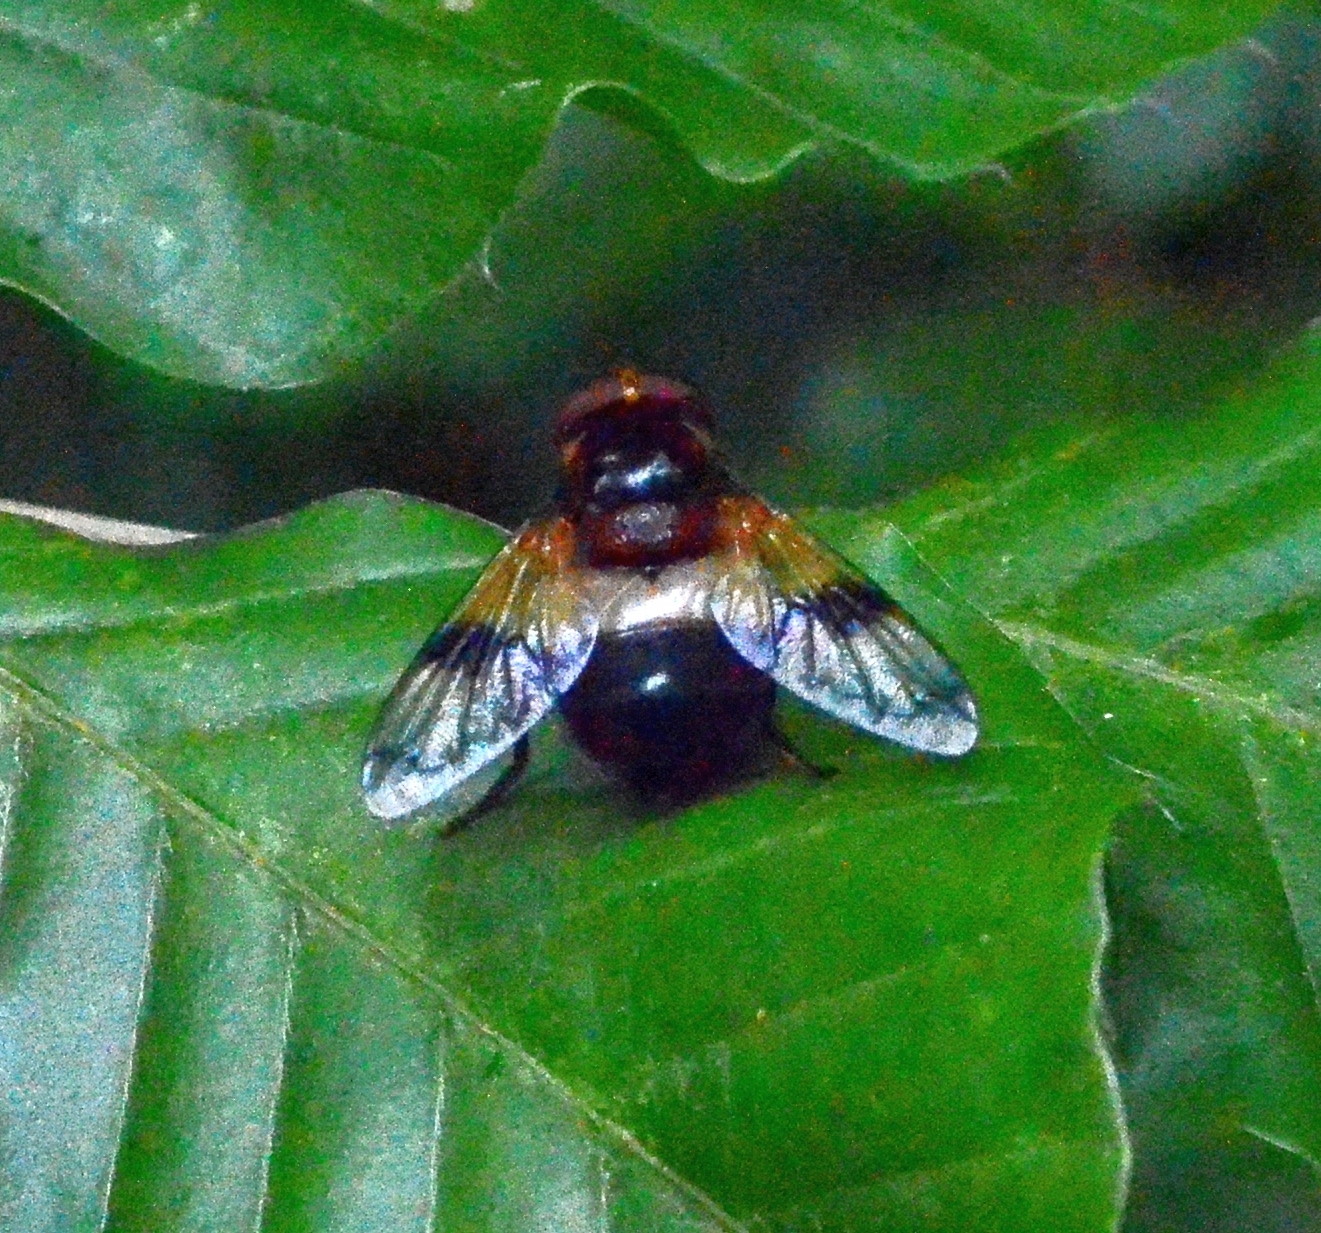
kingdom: Animalia
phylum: Arthropoda
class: Insecta
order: Diptera
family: Syrphidae
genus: Volucella
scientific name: Volucella pellucens
